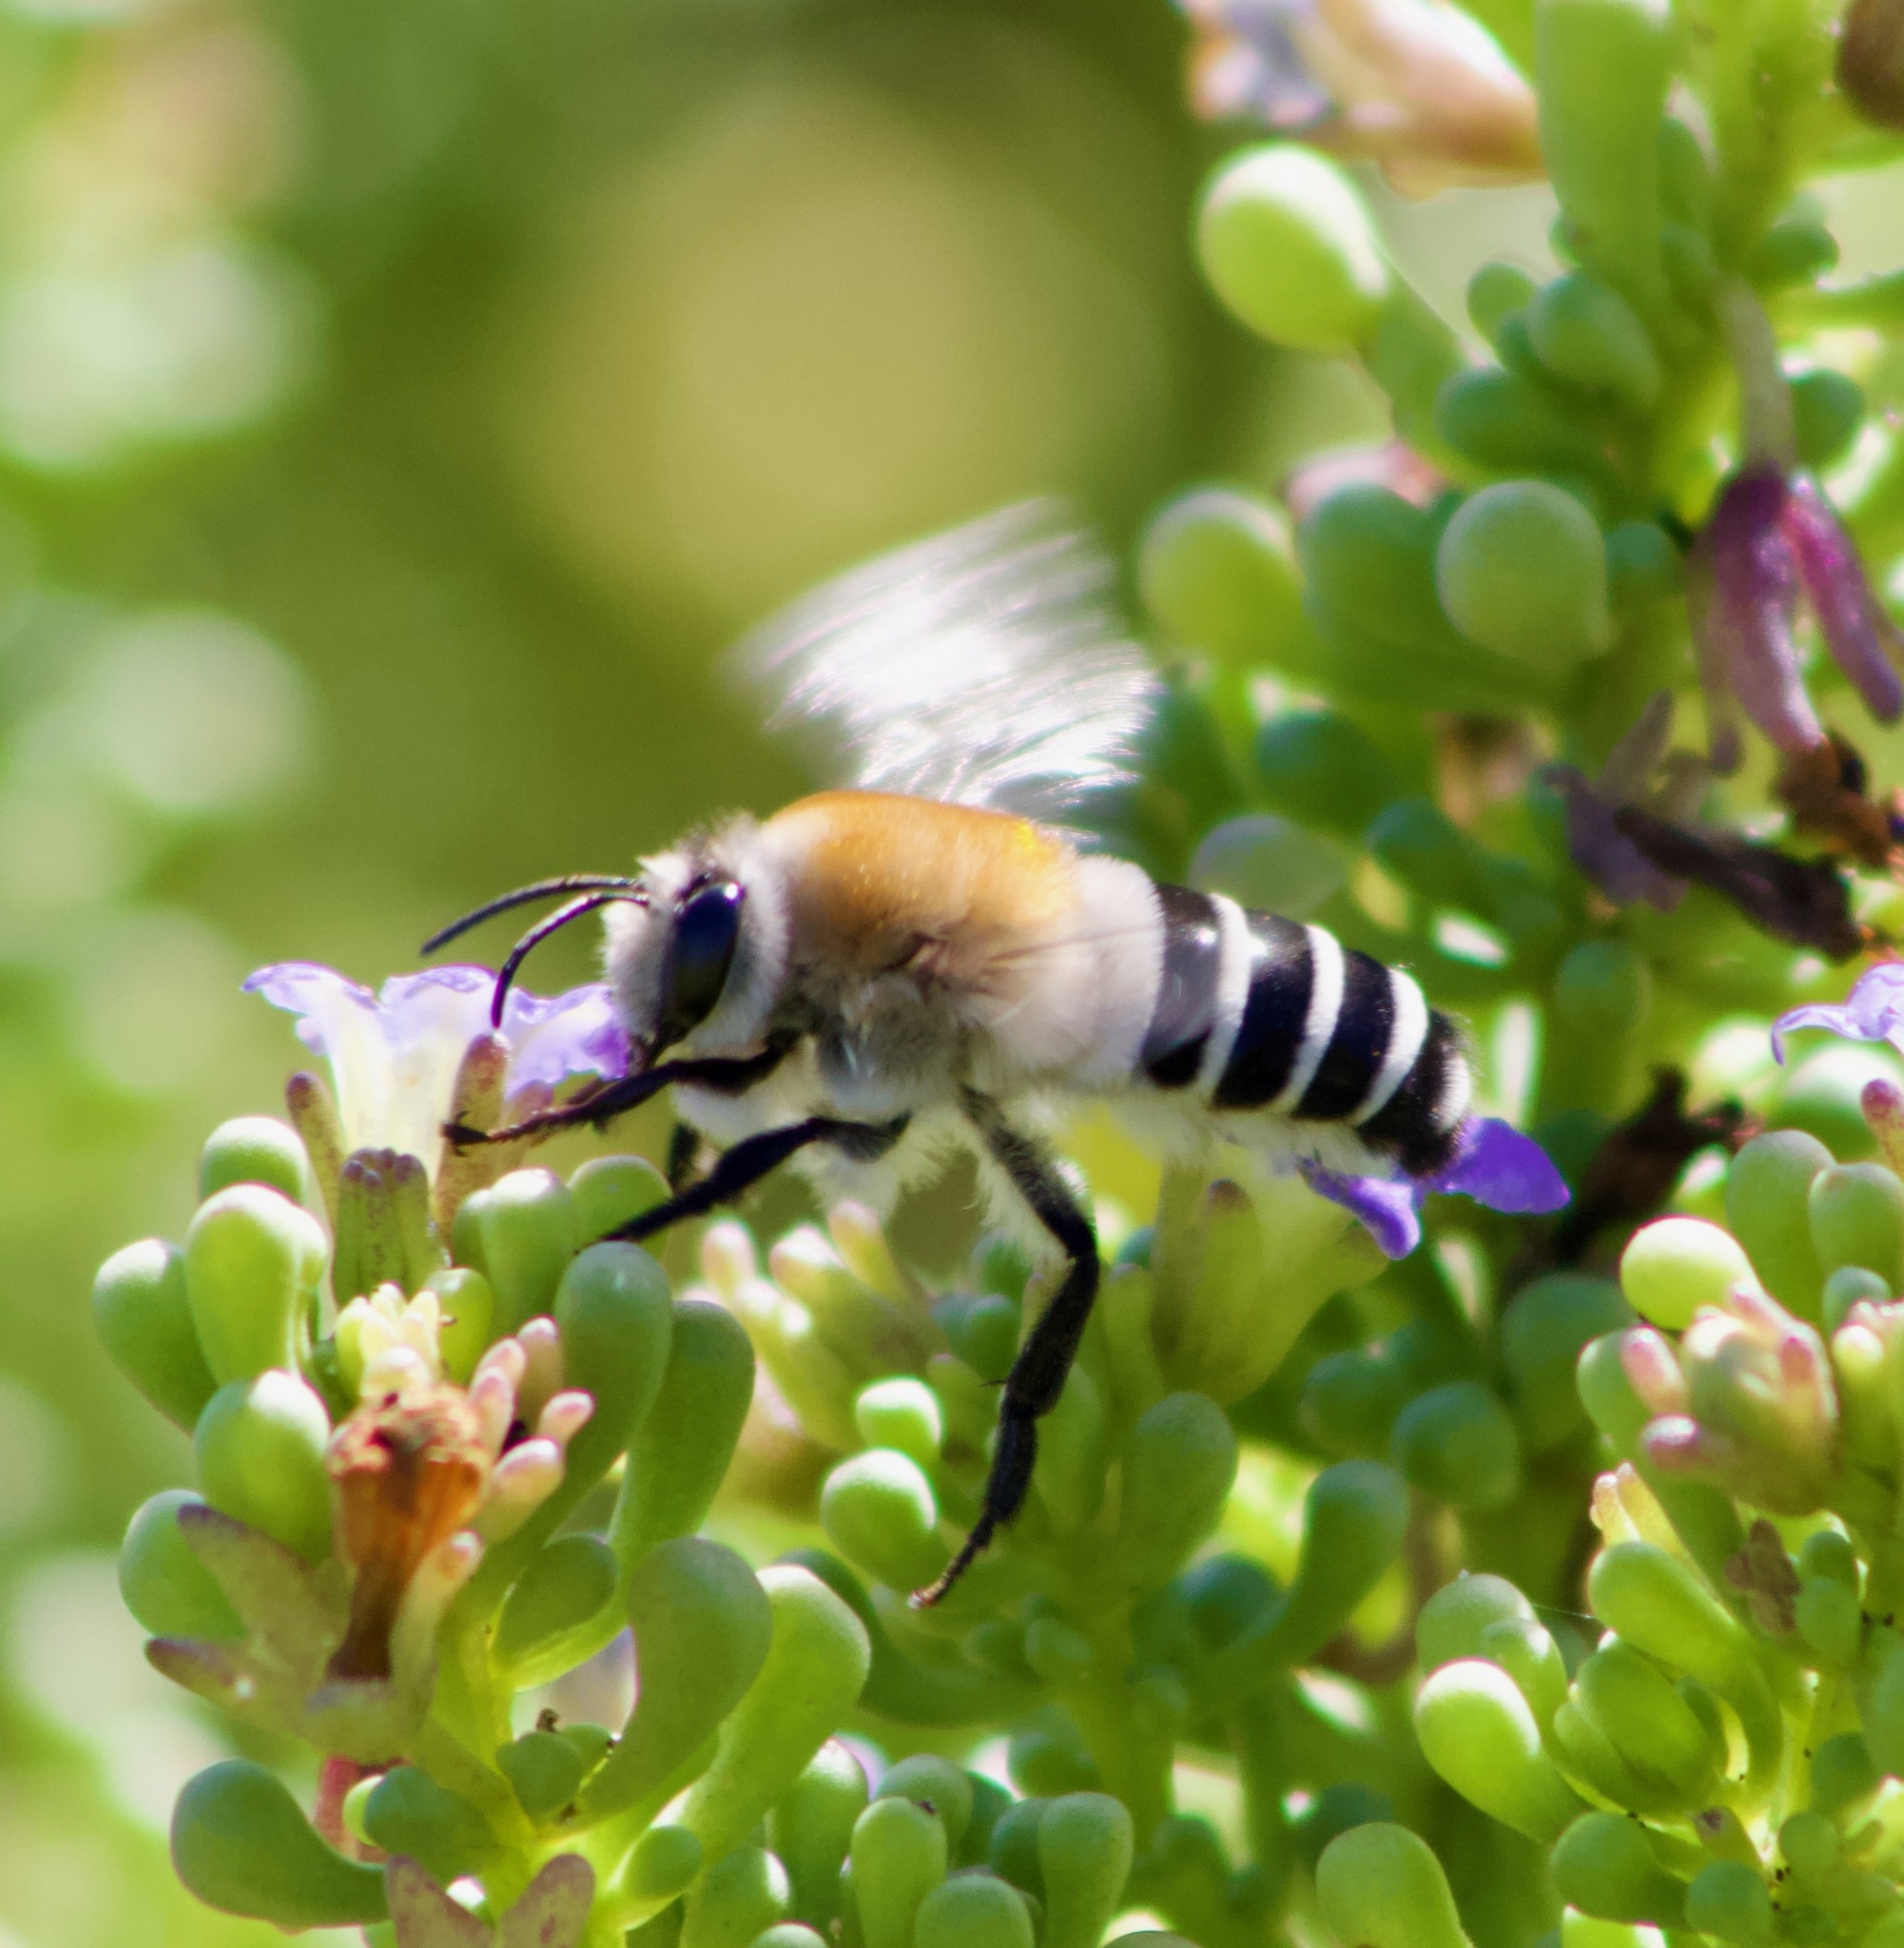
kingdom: Animalia
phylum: Arthropoda
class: Insecta
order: Hymenoptera
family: Colletidae
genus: Caupolicana
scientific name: Caupolicana fulvicollis
